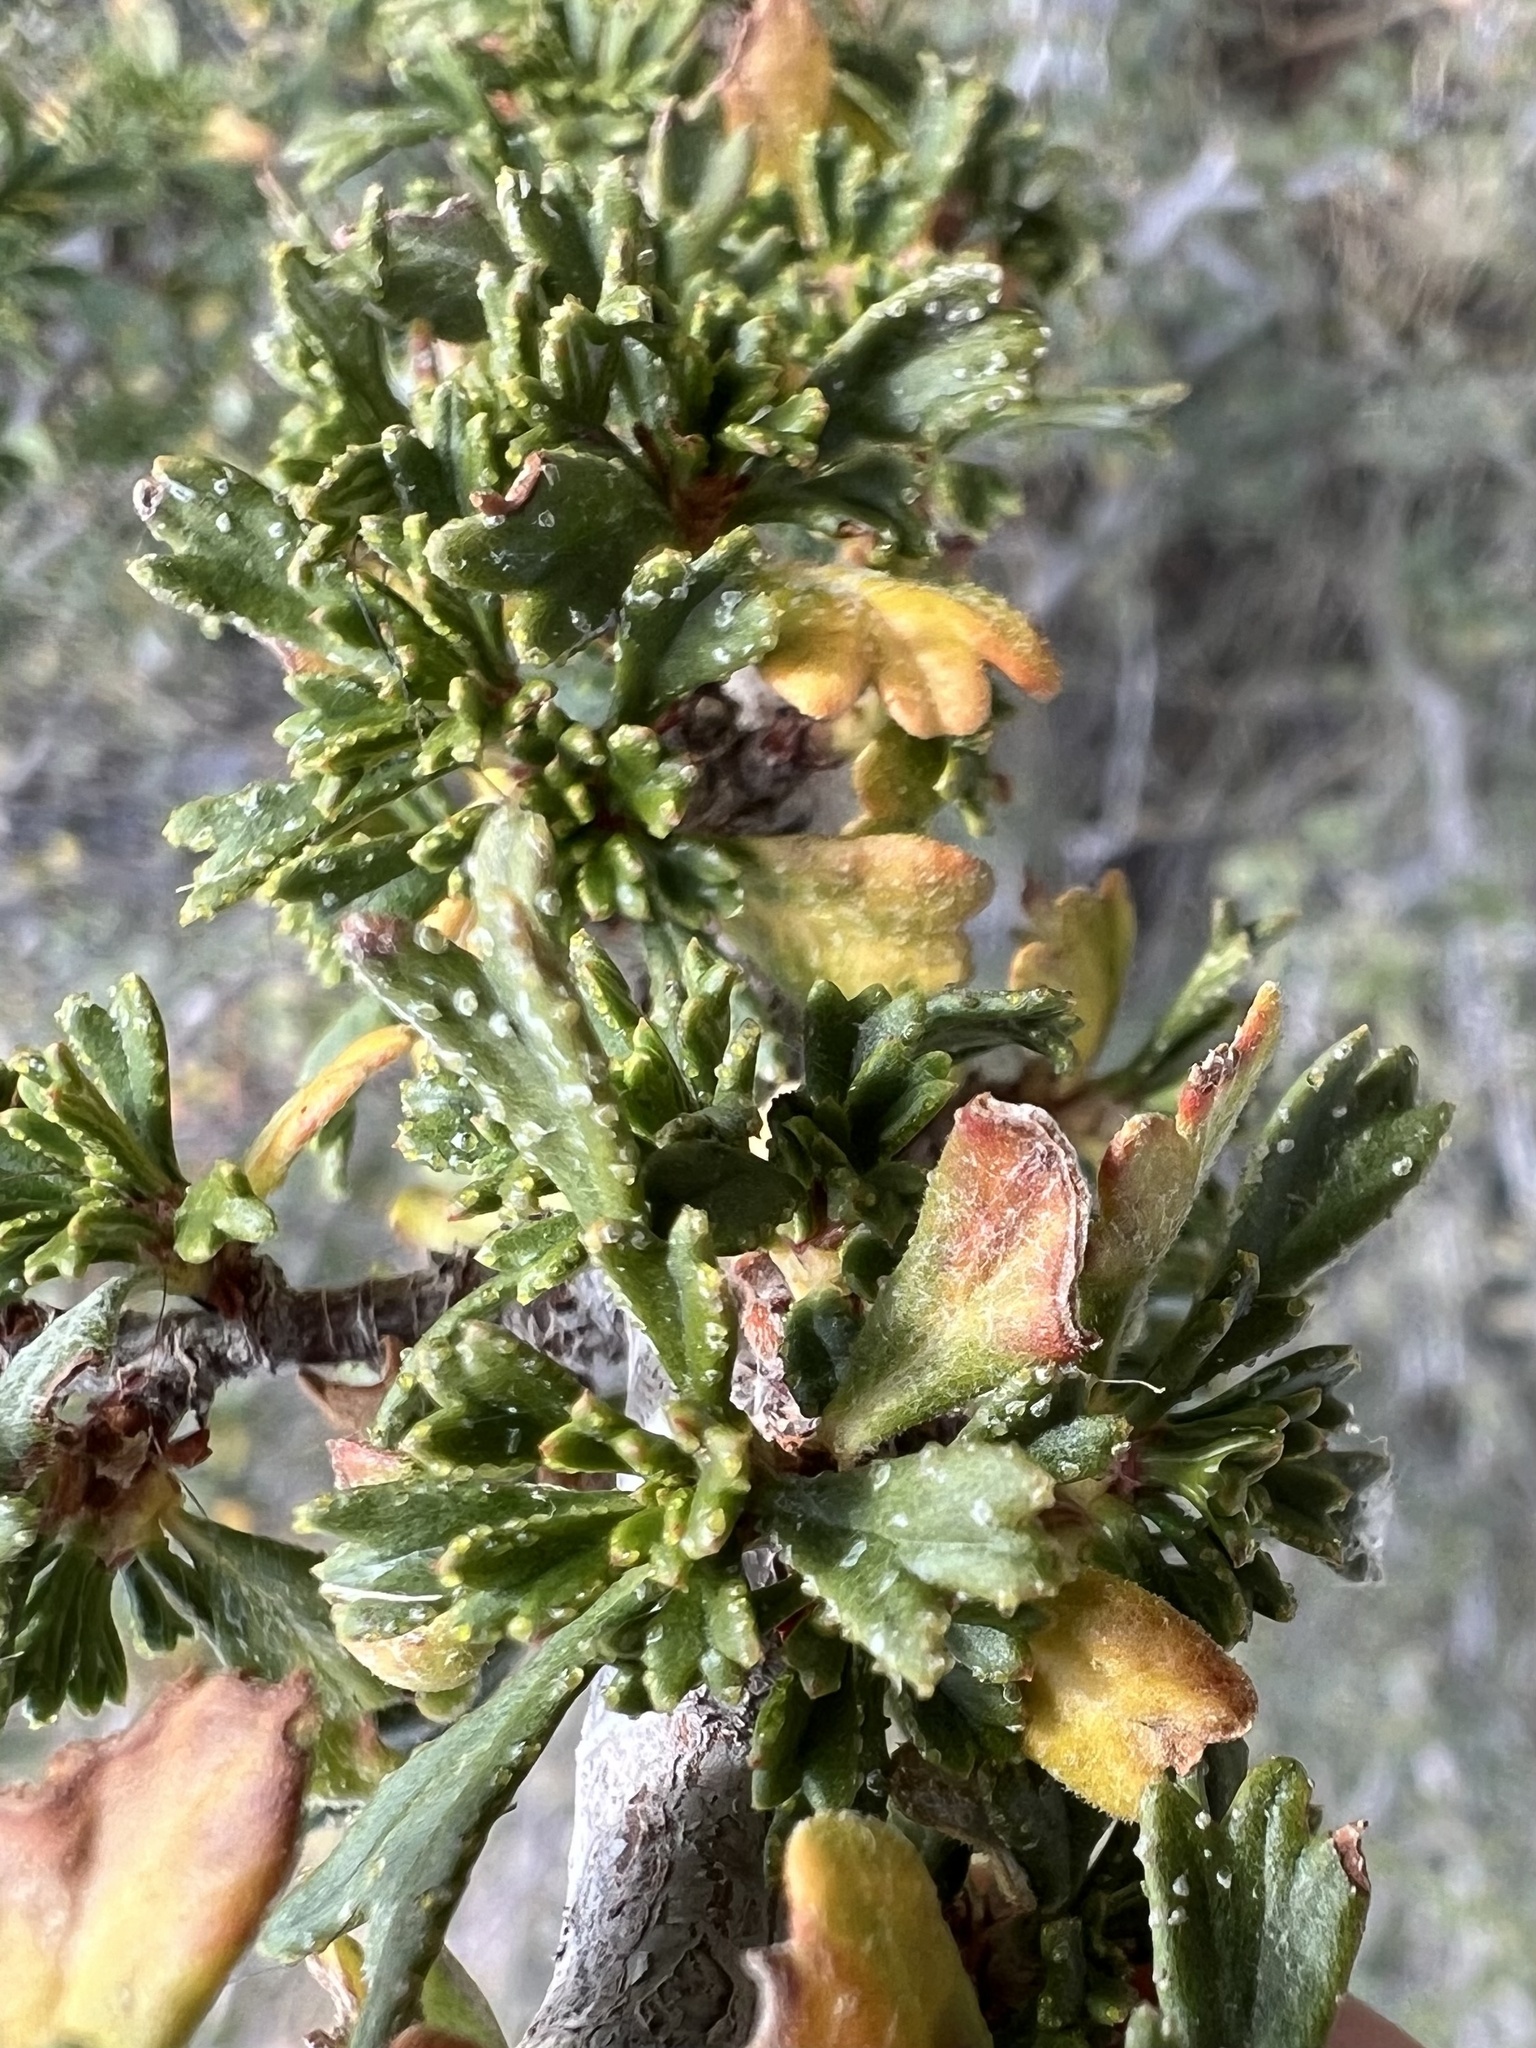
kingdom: Plantae
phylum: Tracheophyta
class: Magnoliopsida
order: Rosales
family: Rosaceae
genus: Purshia
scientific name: Purshia tridentata
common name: Antelope bitterbrush
